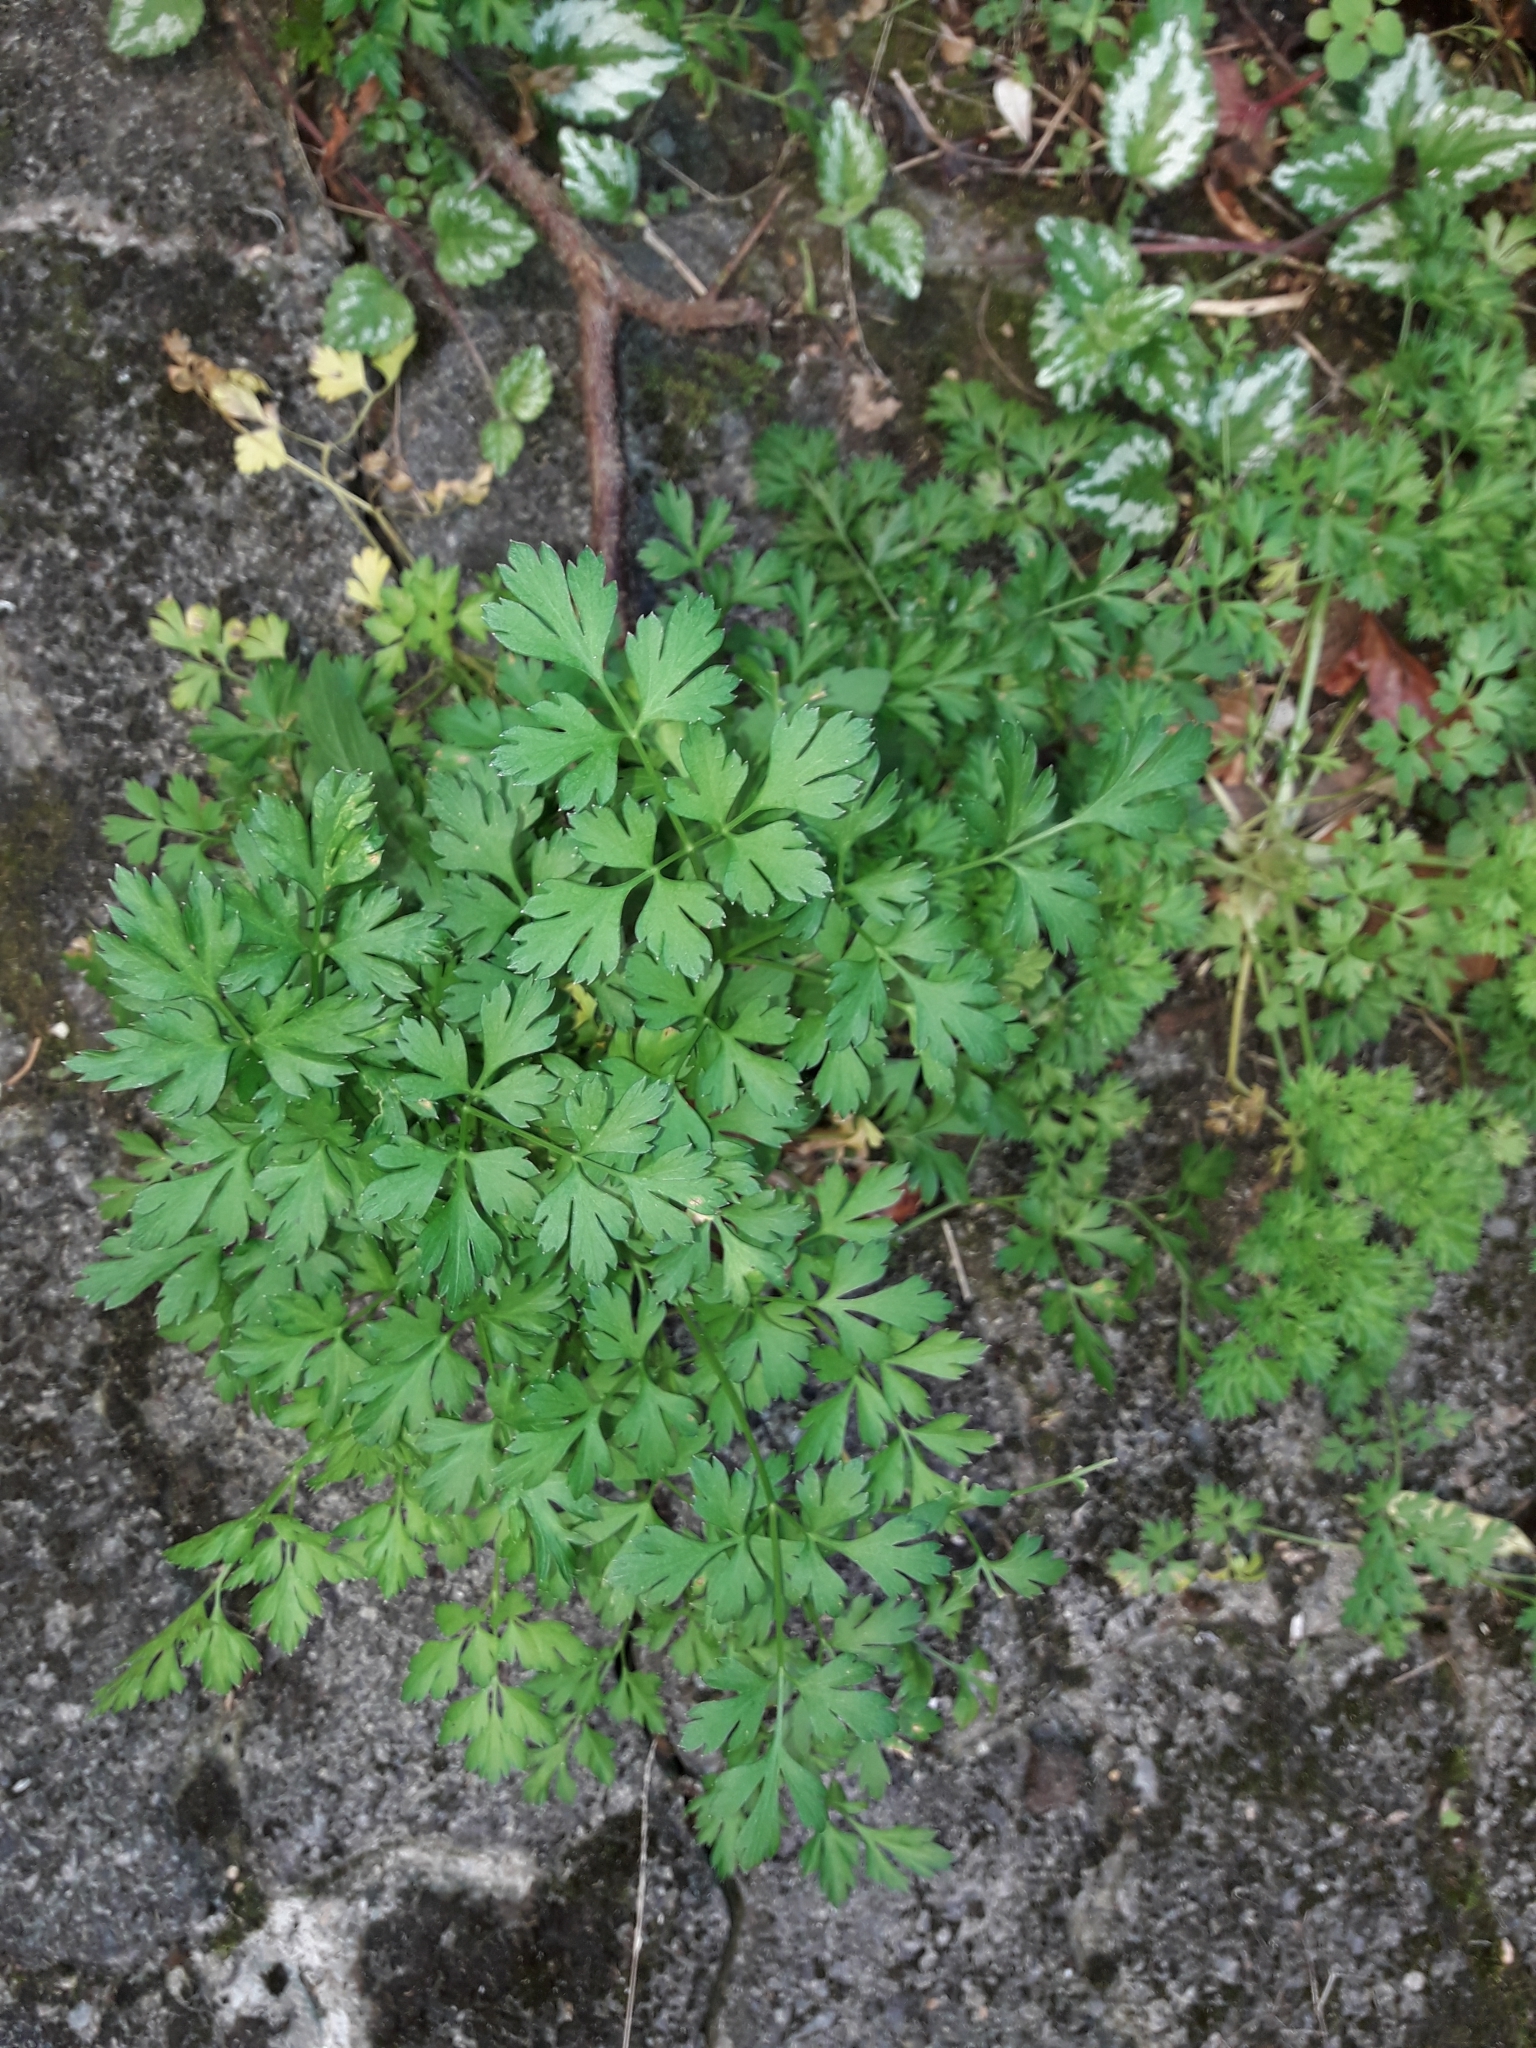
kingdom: Plantae
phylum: Tracheophyta
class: Magnoliopsida
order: Apiales
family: Apiaceae
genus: Petroselinum
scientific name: Petroselinum crispum
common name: Parsley
